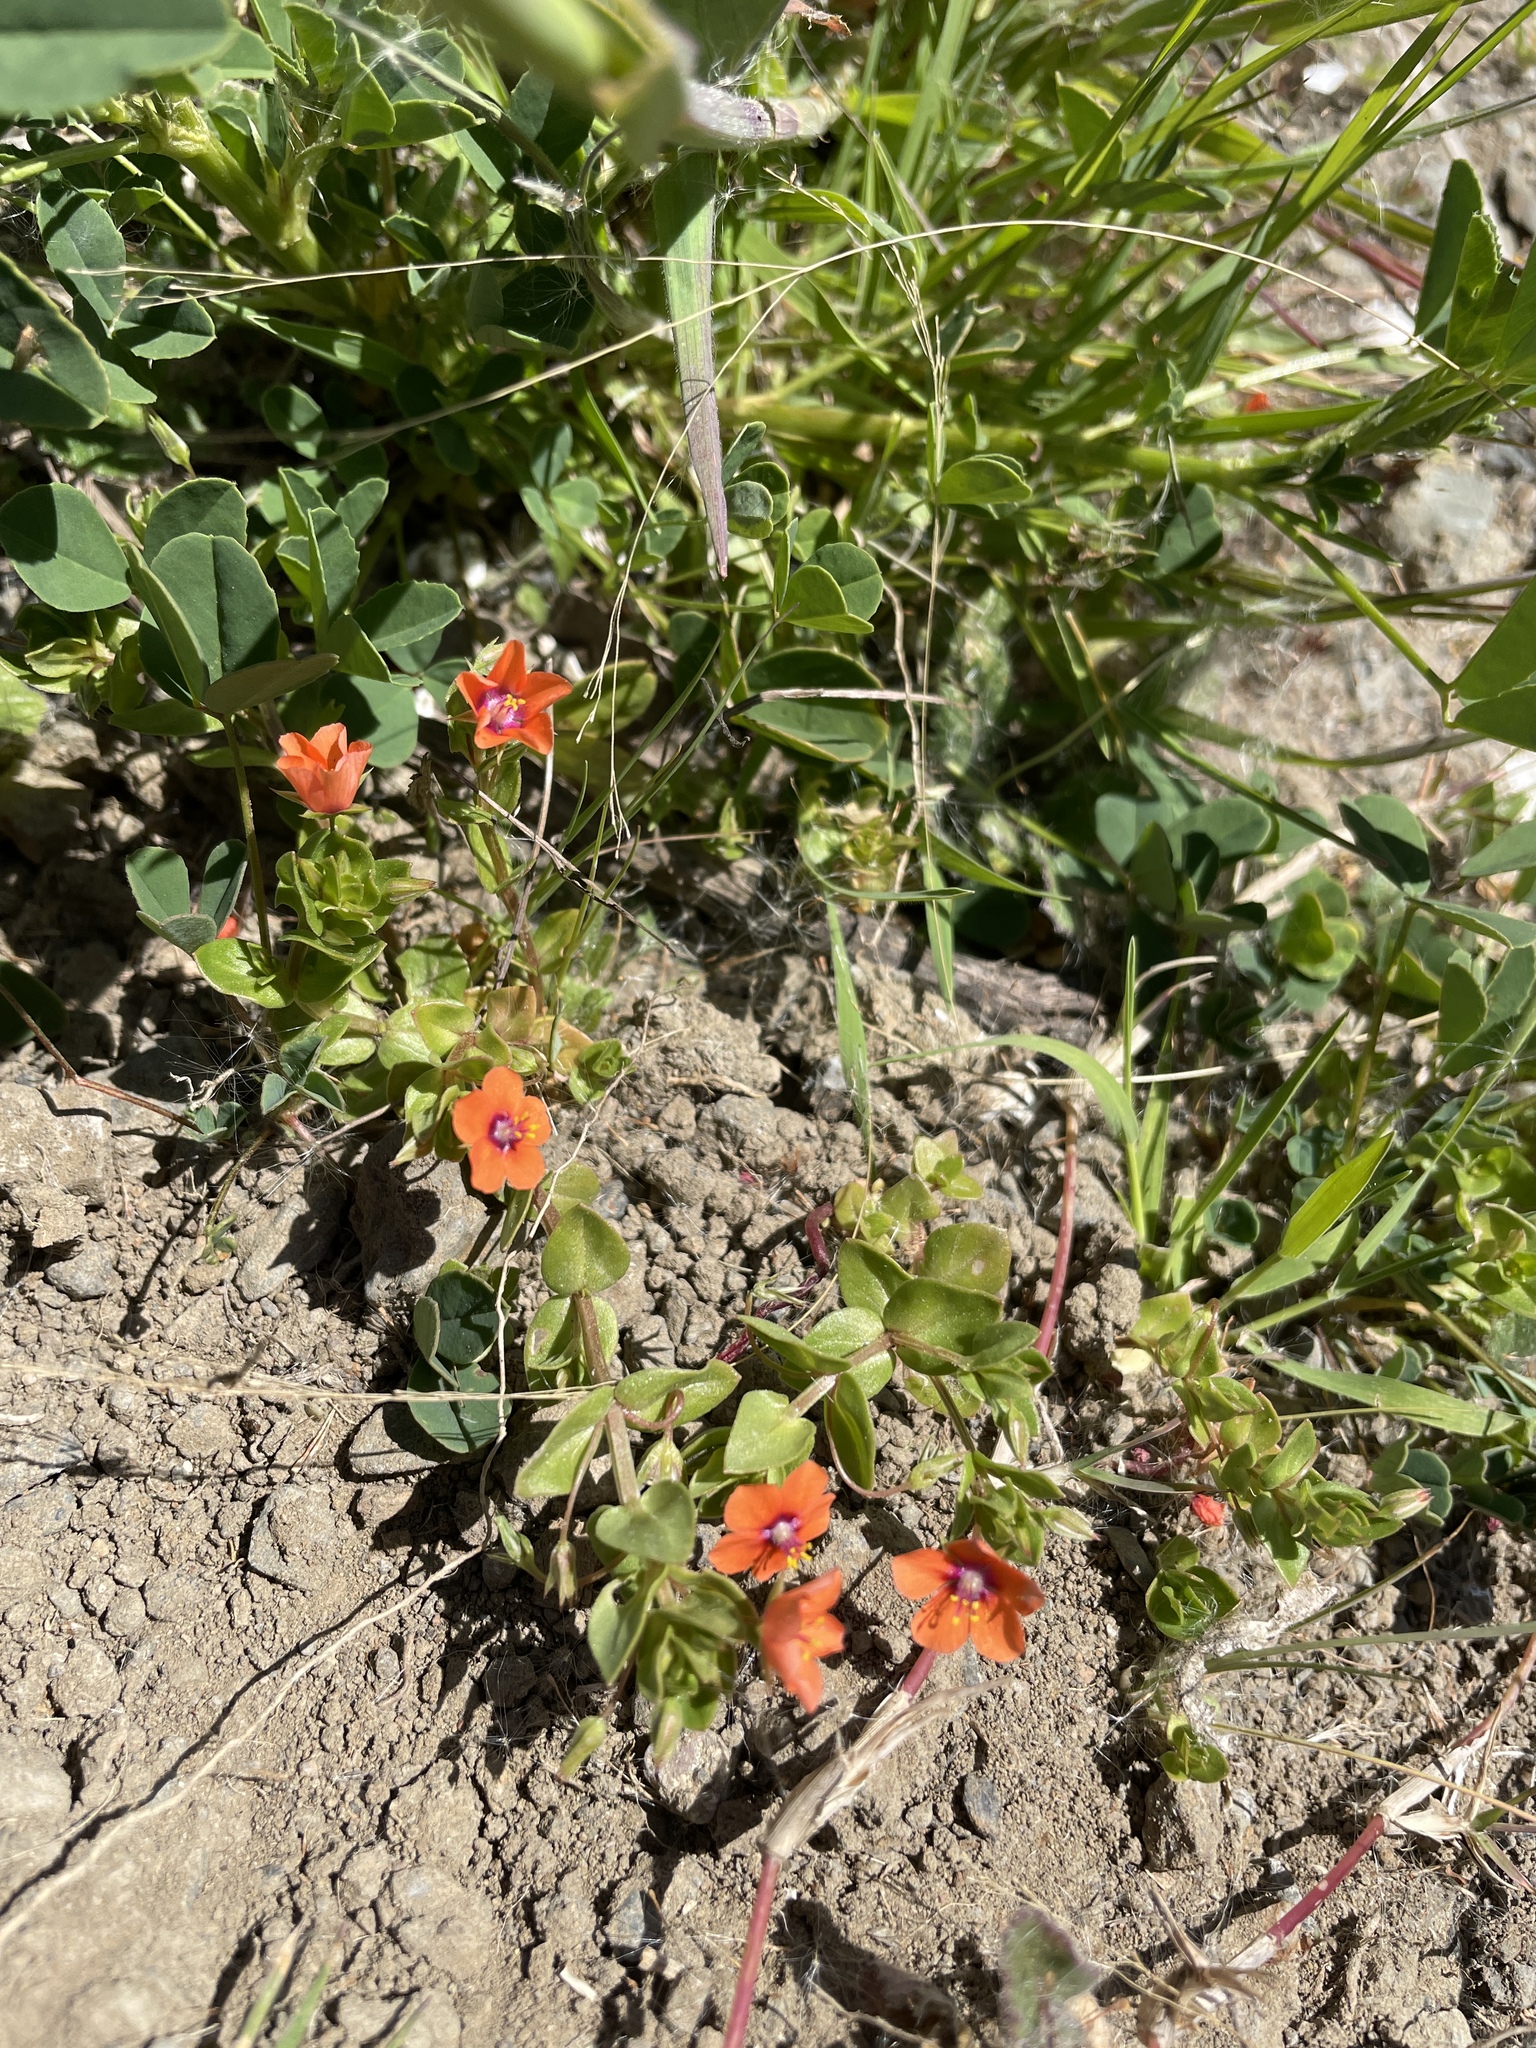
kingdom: Plantae
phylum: Tracheophyta
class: Magnoliopsida
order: Ericales
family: Primulaceae
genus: Lysimachia
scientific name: Lysimachia arvensis
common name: Scarlet pimpernel
